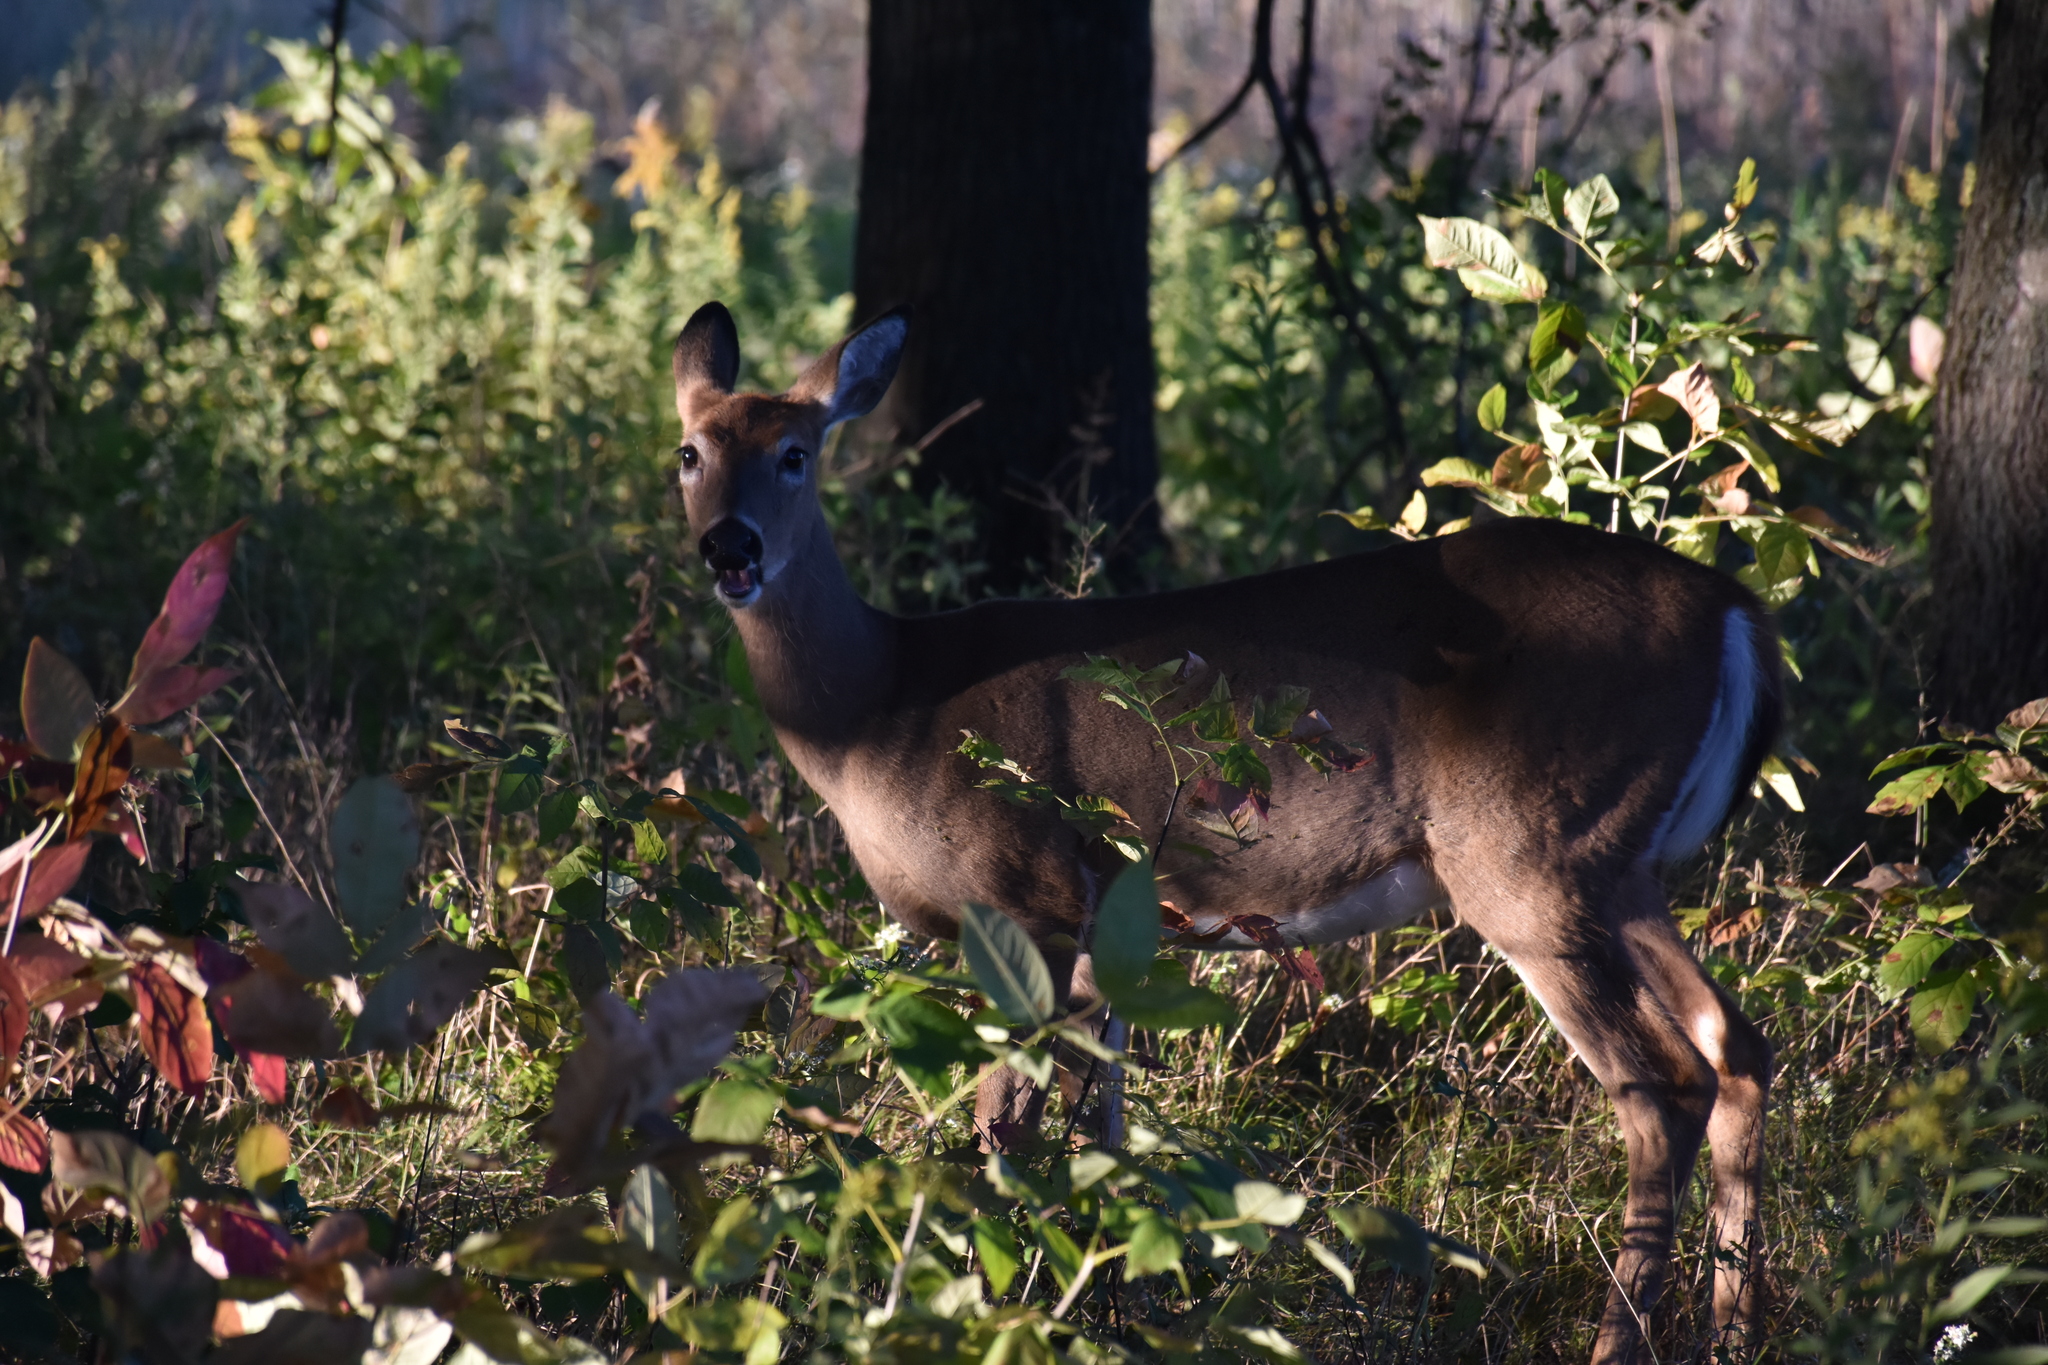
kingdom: Animalia
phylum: Chordata
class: Mammalia
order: Artiodactyla
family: Cervidae
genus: Odocoileus
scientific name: Odocoileus virginianus
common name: White-tailed deer
